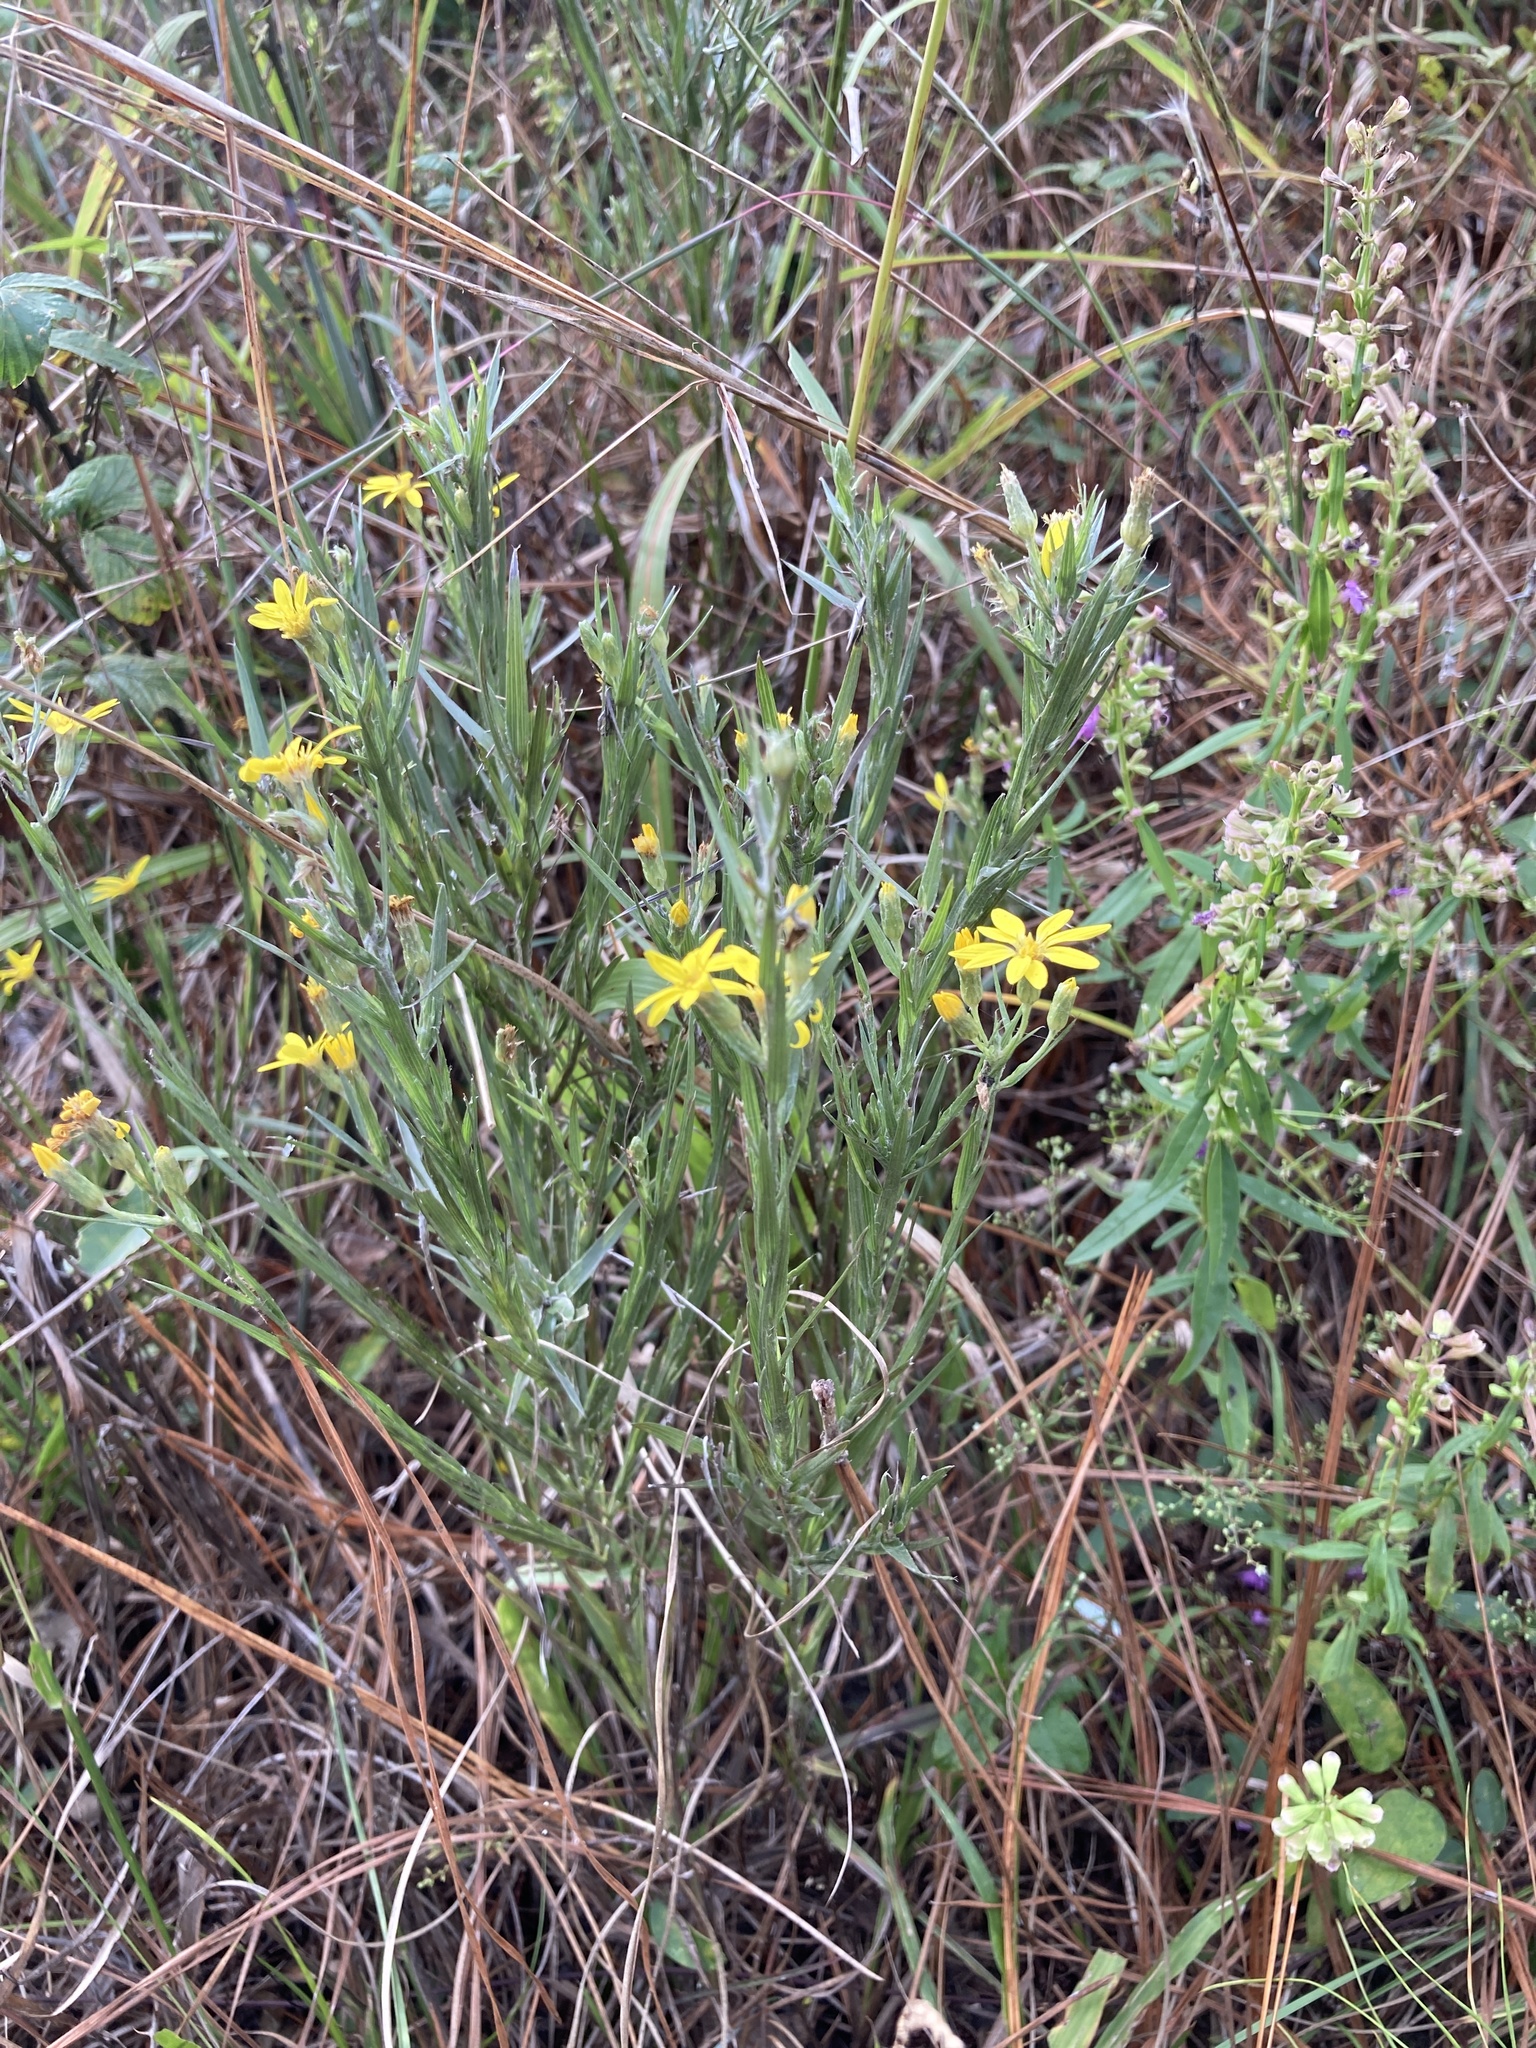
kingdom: Plantae
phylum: Tracheophyta
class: Magnoliopsida
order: Asterales
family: Asteraceae
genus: Pityopsis
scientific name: Pityopsis graminifolia
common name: Grass-leaf golden-aster
